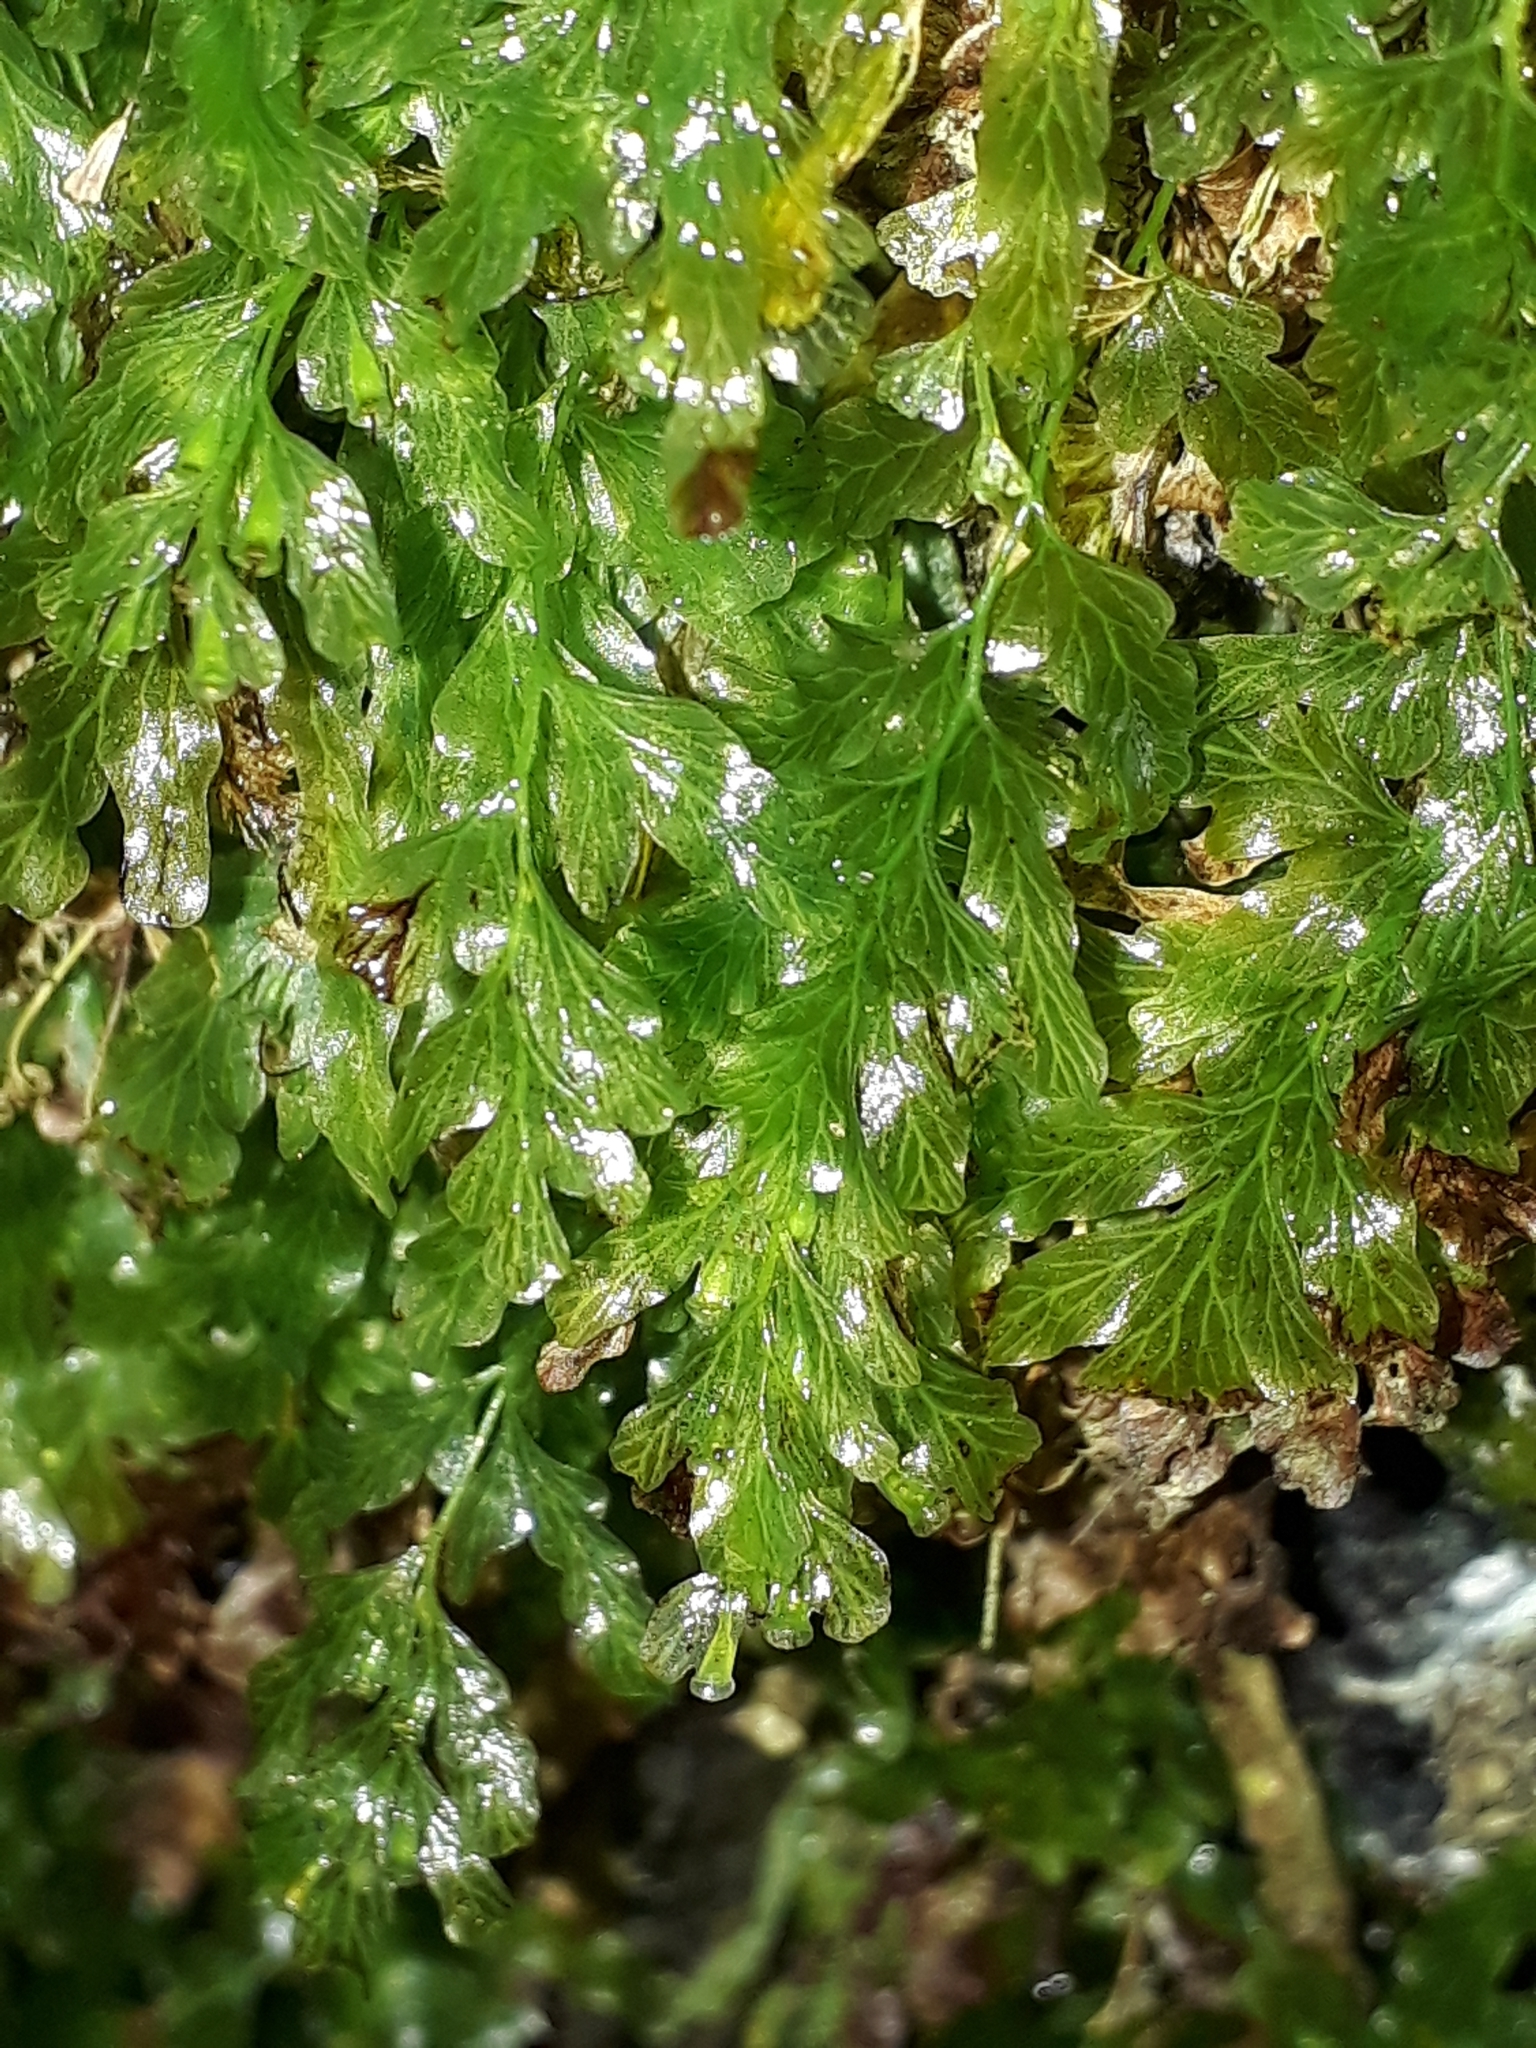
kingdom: Plantae
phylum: Tracheophyta
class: Polypodiopsida
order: Hymenophyllales
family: Hymenophyllaceae
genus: Polyphlebium
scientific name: Polyphlebium venosum
